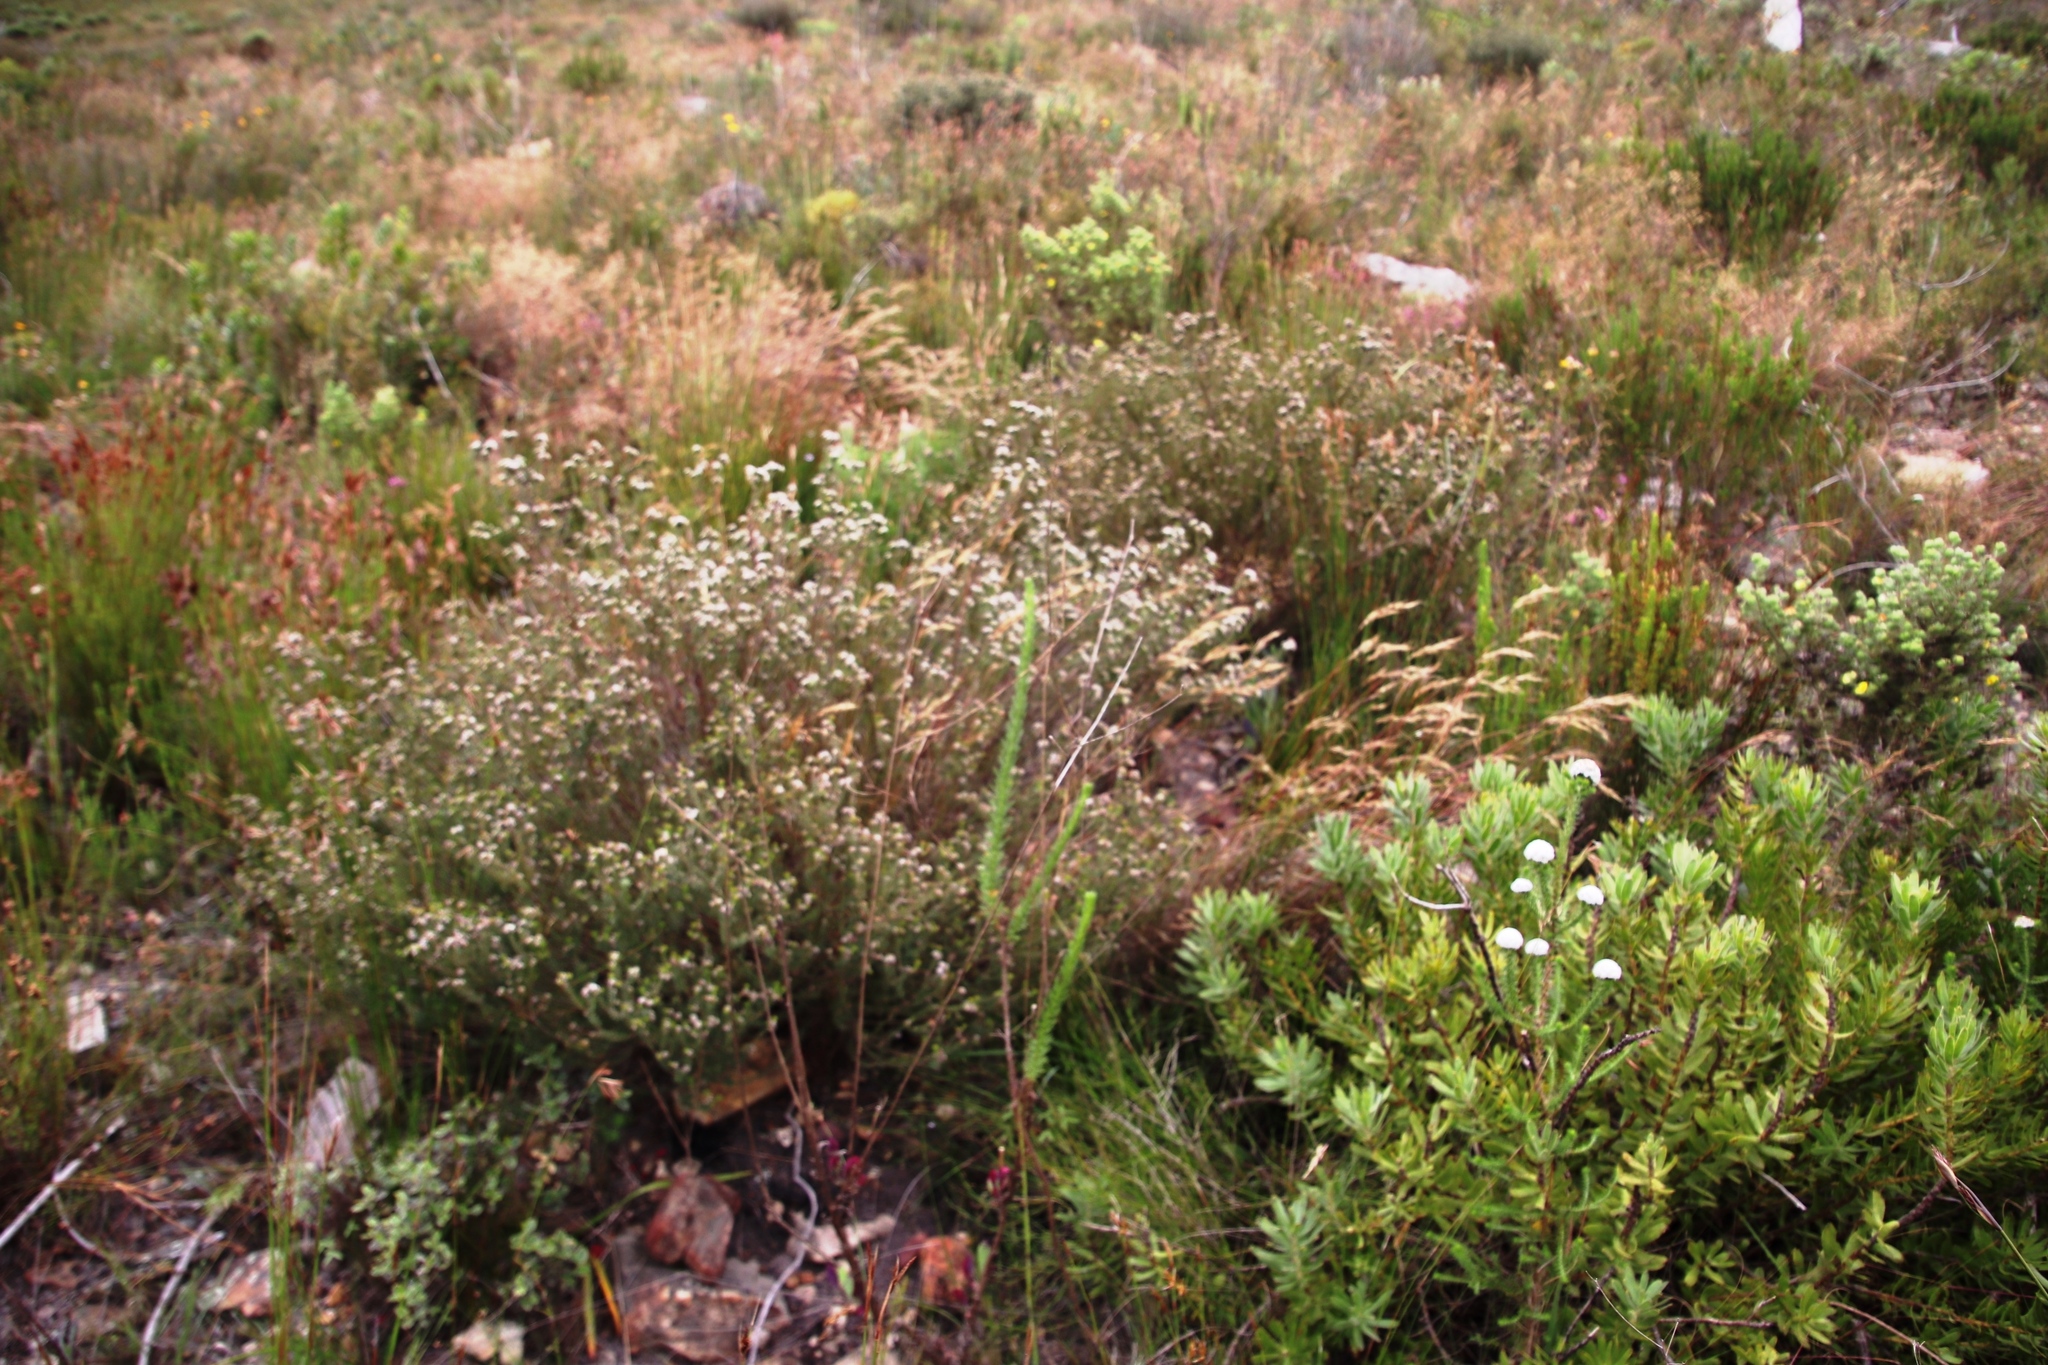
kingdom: Plantae
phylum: Tracheophyta
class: Magnoliopsida
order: Bruniales
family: Bruniaceae
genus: Staavia
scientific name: Staavia capitella
